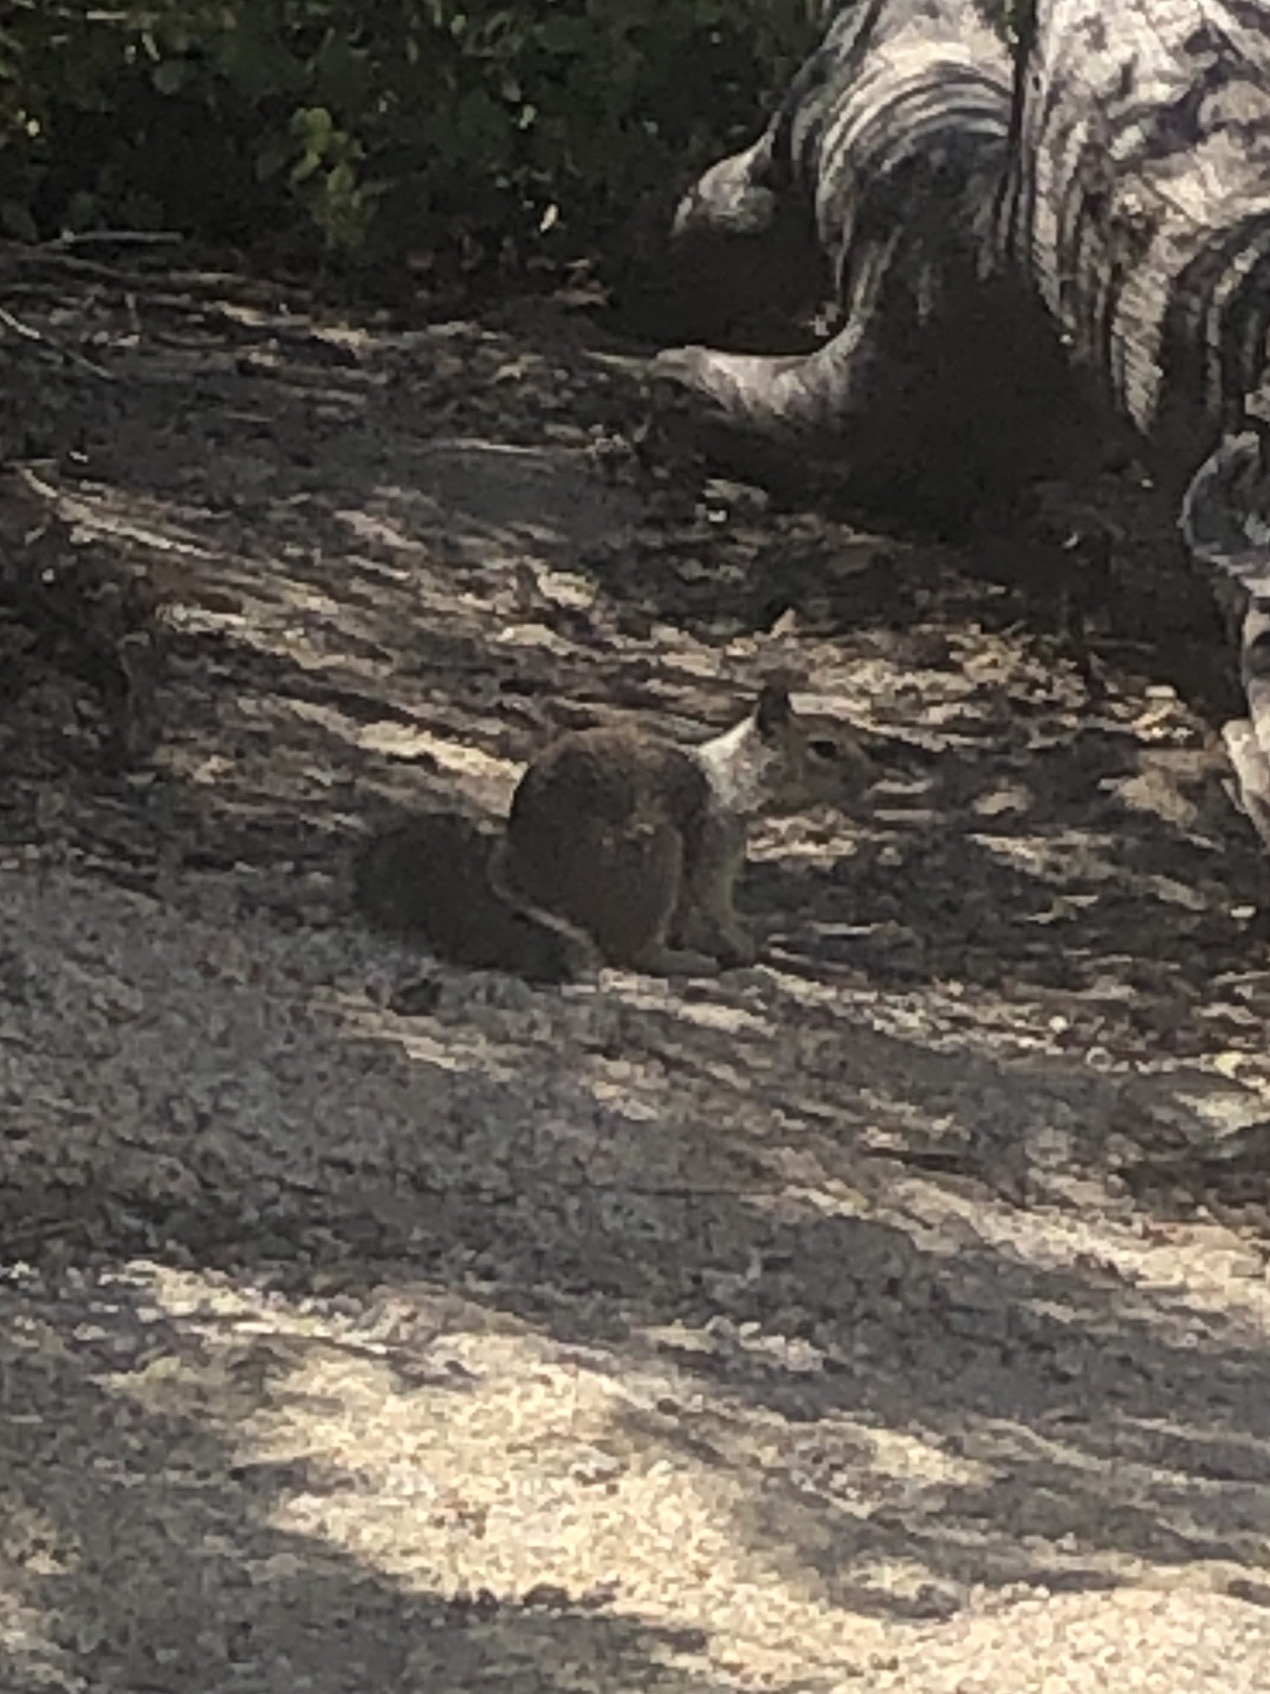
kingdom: Animalia
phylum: Chordata
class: Mammalia
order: Rodentia
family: Sciuridae
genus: Otospermophilus
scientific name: Otospermophilus beecheyi
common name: California ground squirrel
